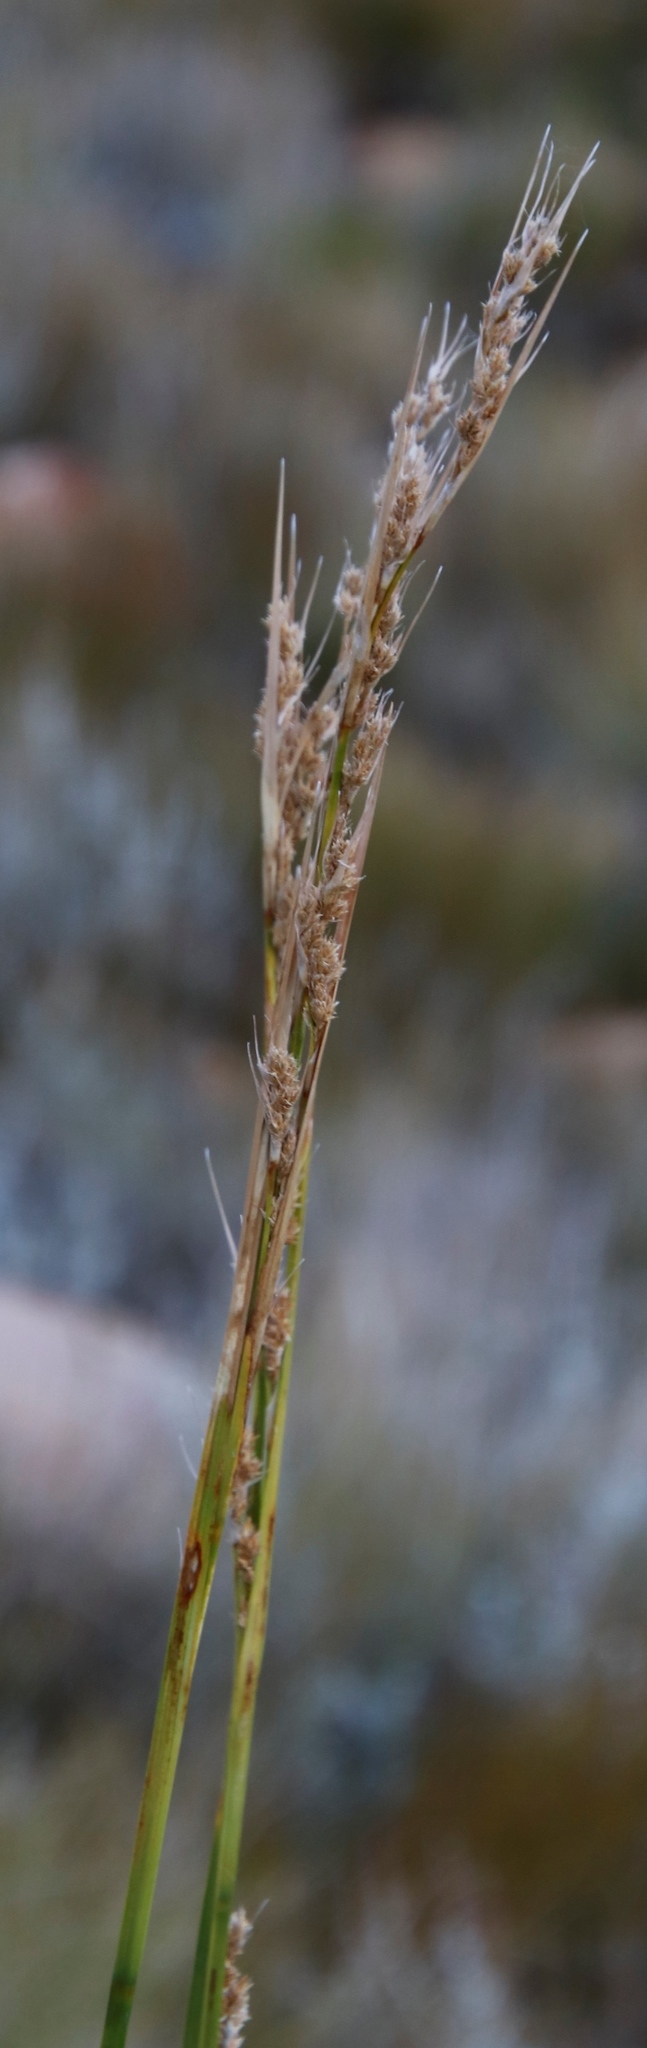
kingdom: Plantae
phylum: Tracheophyta
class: Liliopsida
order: Poales
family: Cyperaceae
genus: Carpha
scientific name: Carpha schlechteri
